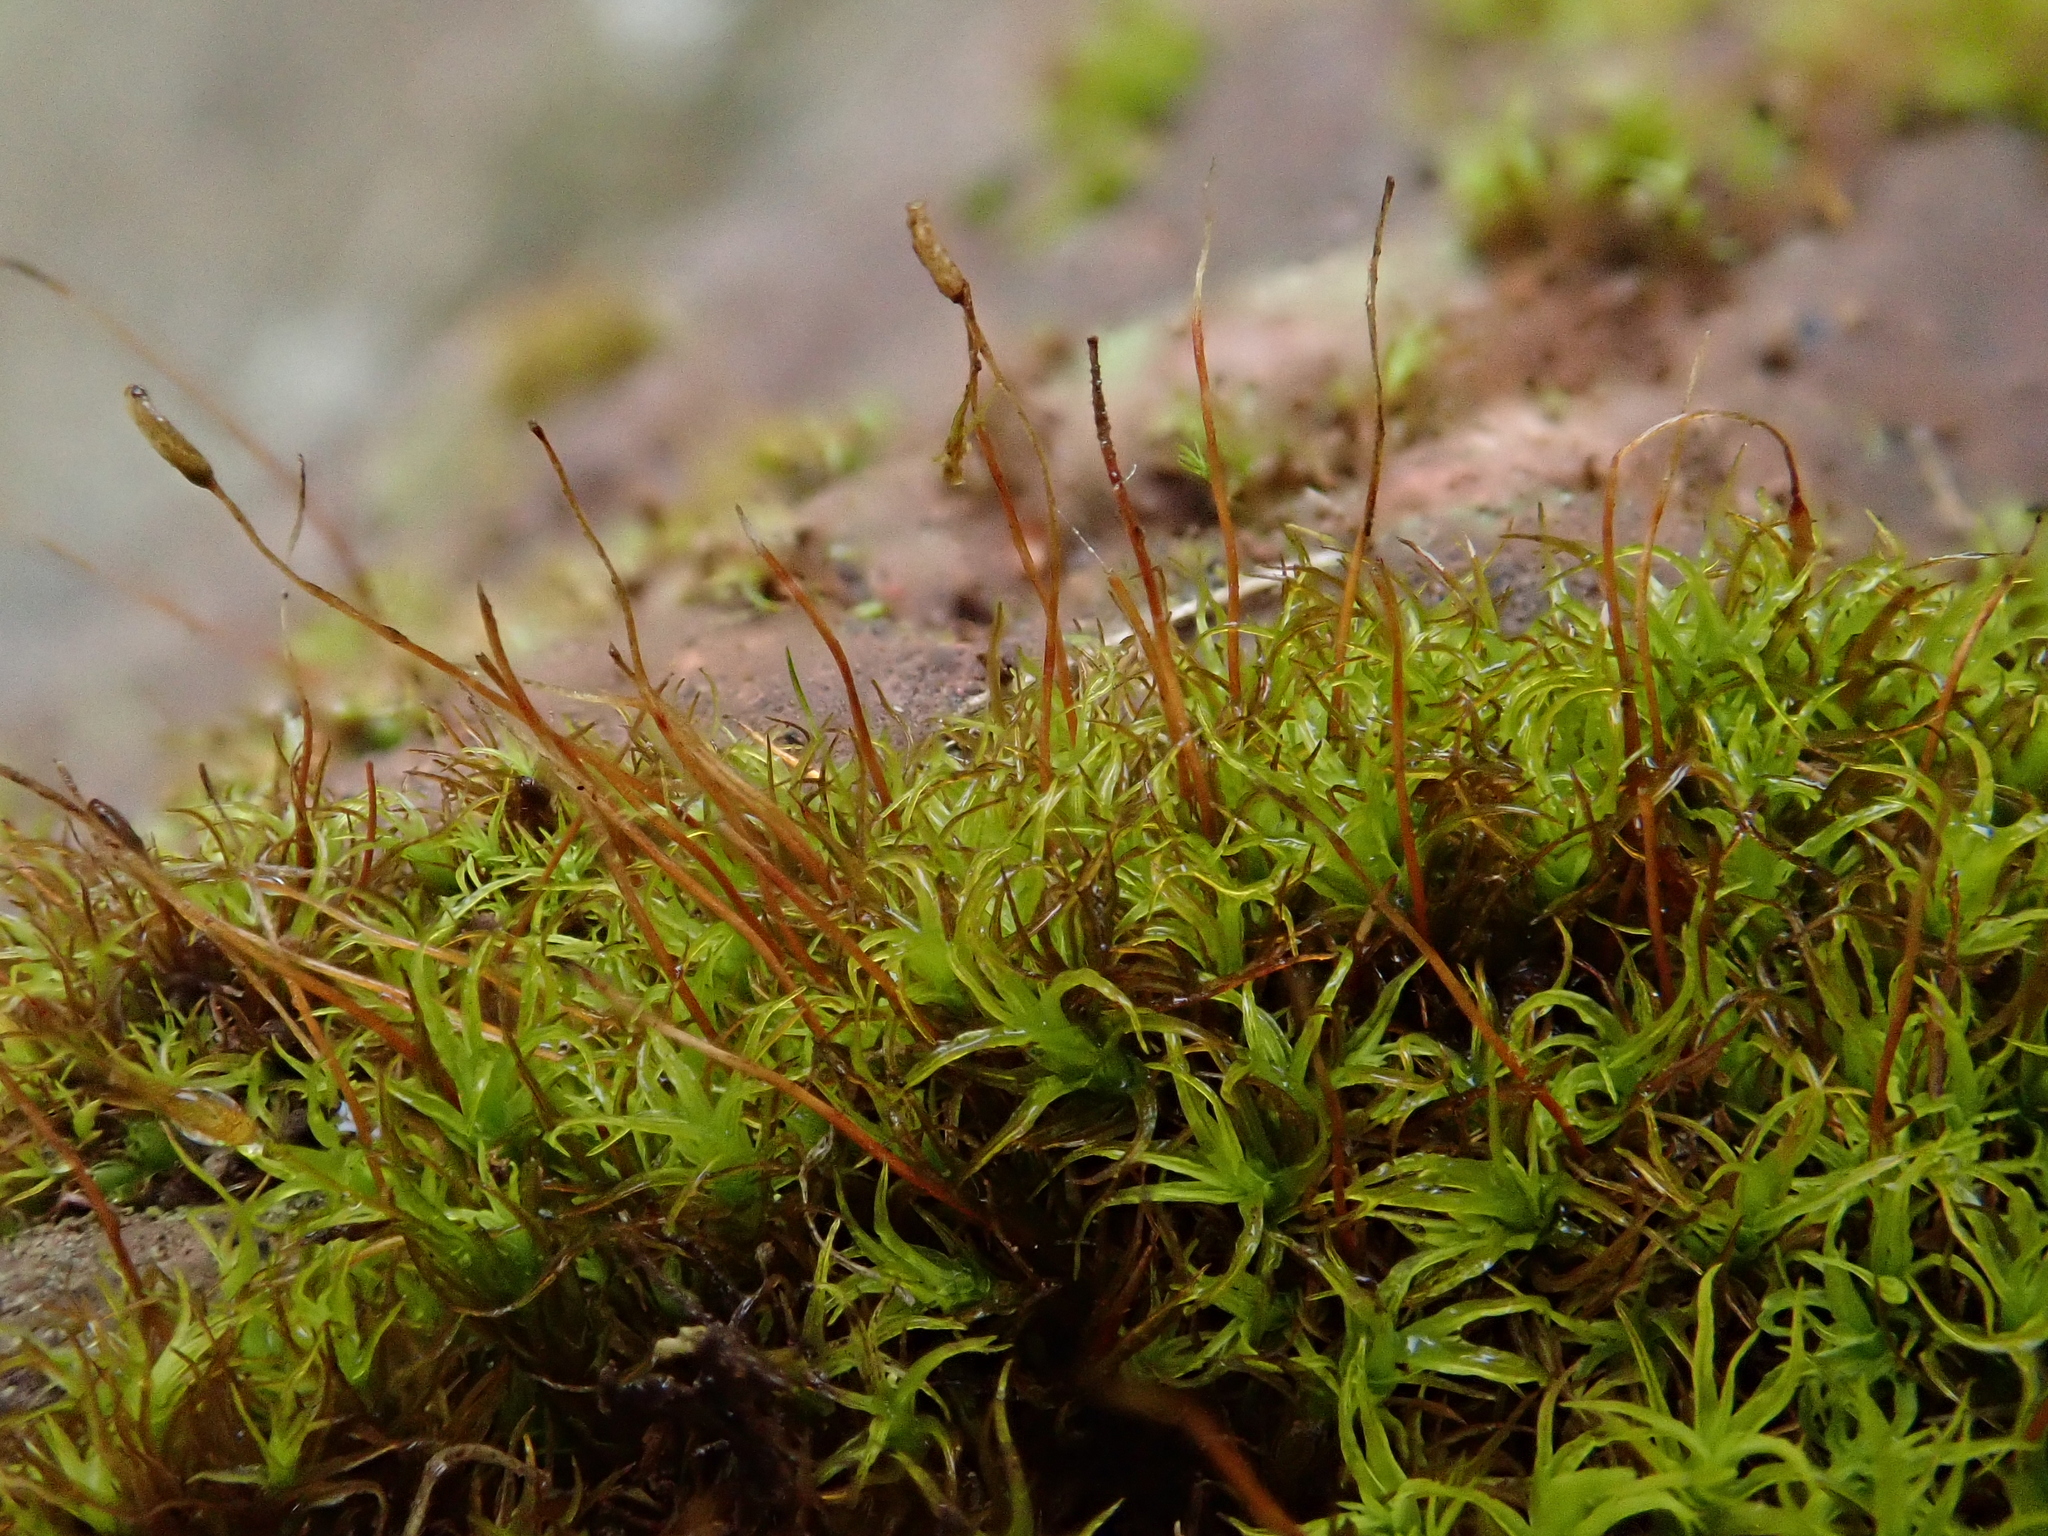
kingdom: Plantae
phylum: Bryophyta
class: Bryopsida
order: Pottiales
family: Pottiaceae
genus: Vinealobryum
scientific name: Vinealobryum insulanum
